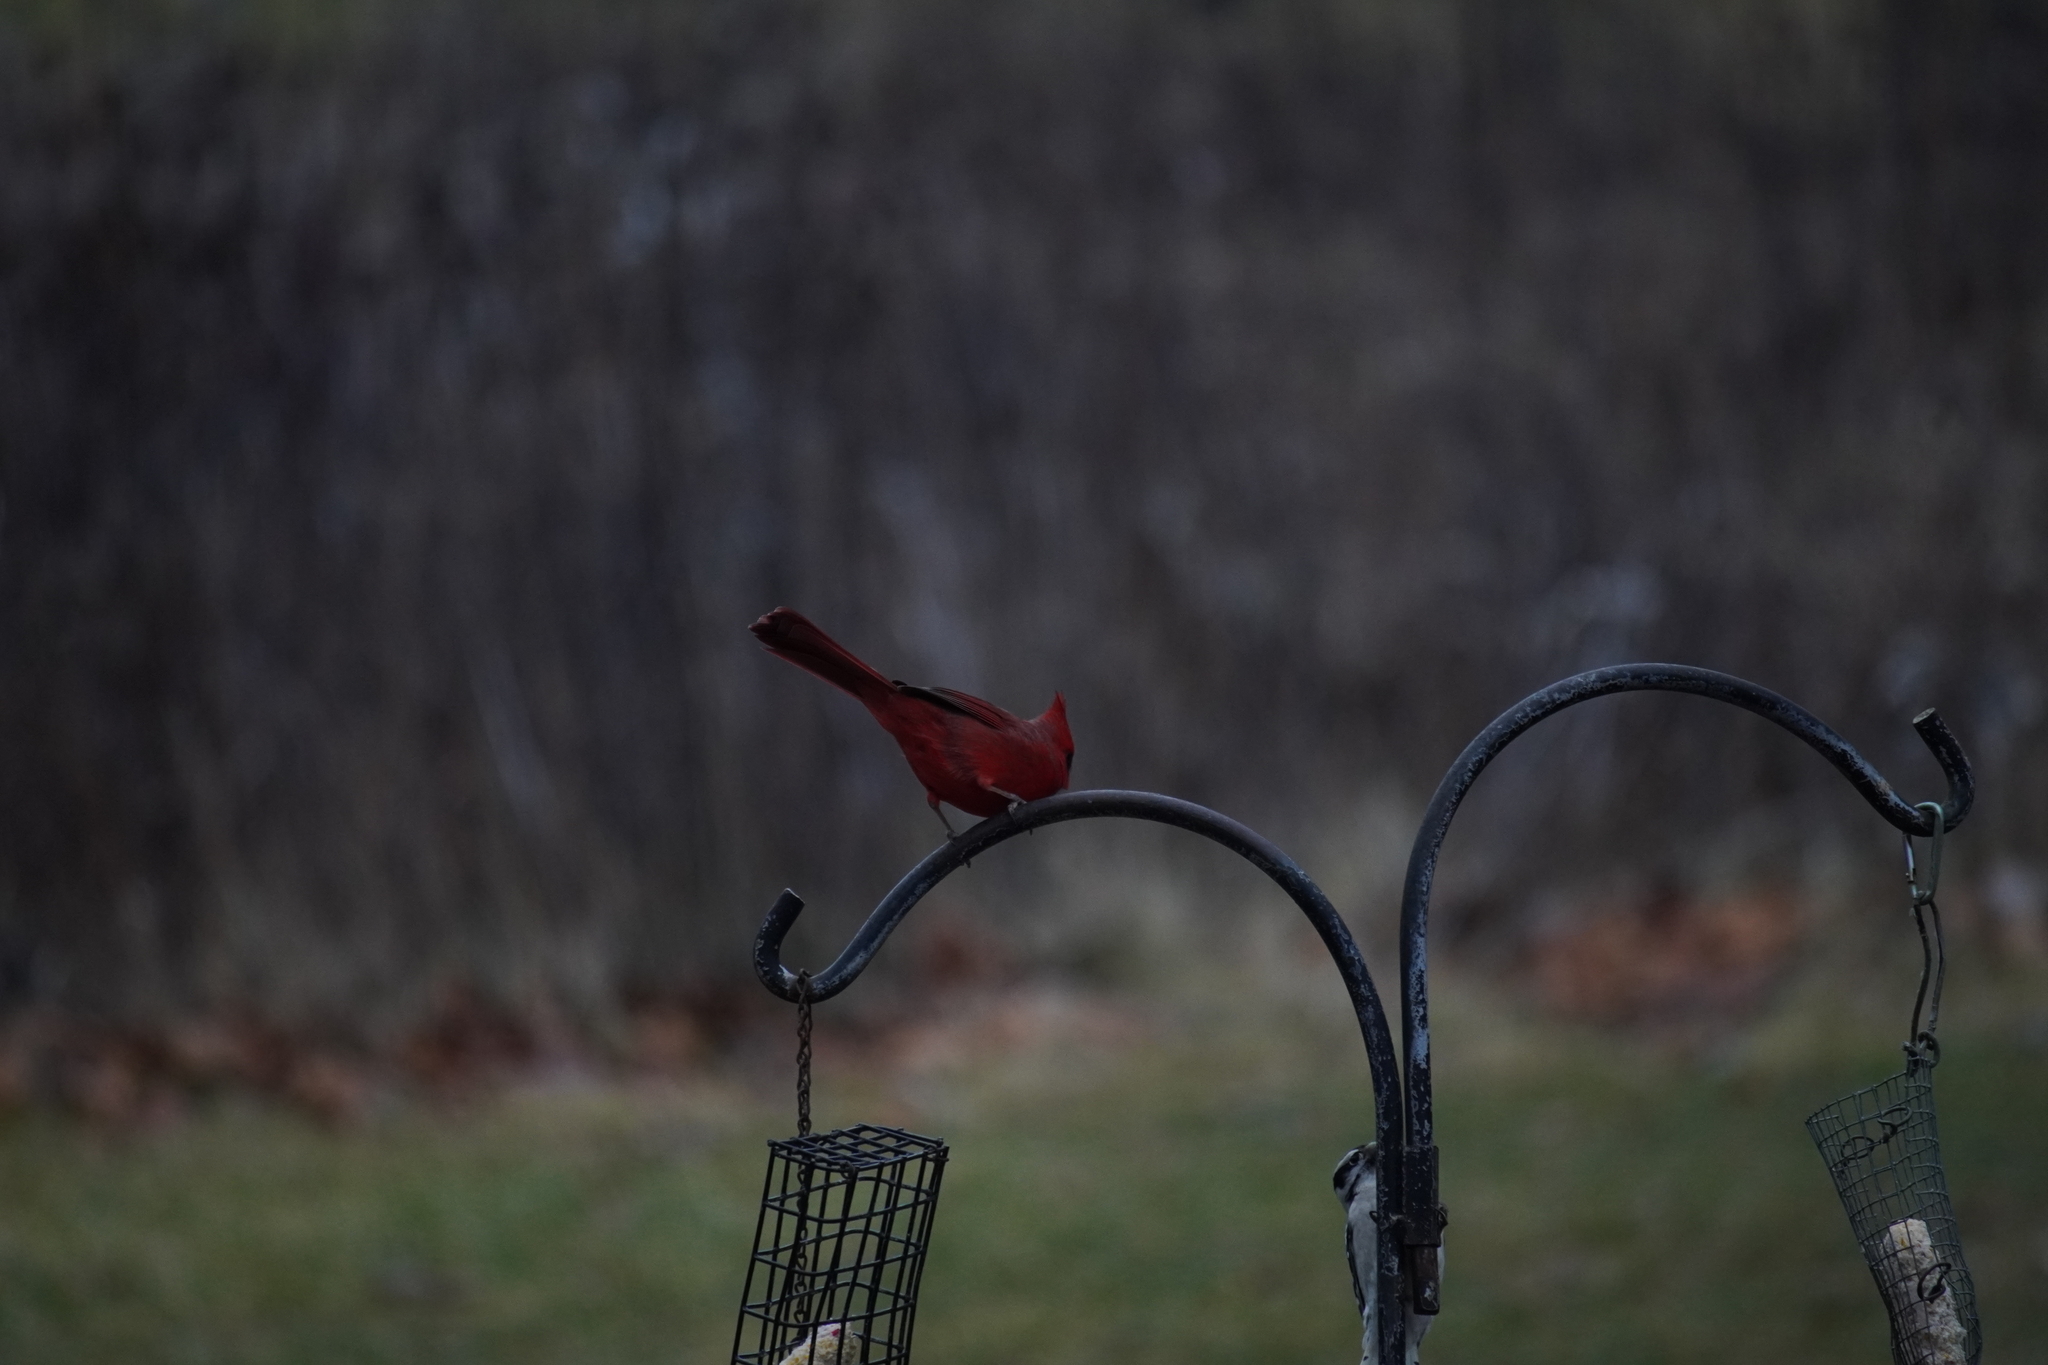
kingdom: Animalia
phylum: Chordata
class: Aves
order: Passeriformes
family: Cardinalidae
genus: Cardinalis
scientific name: Cardinalis cardinalis
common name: Northern cardinal
